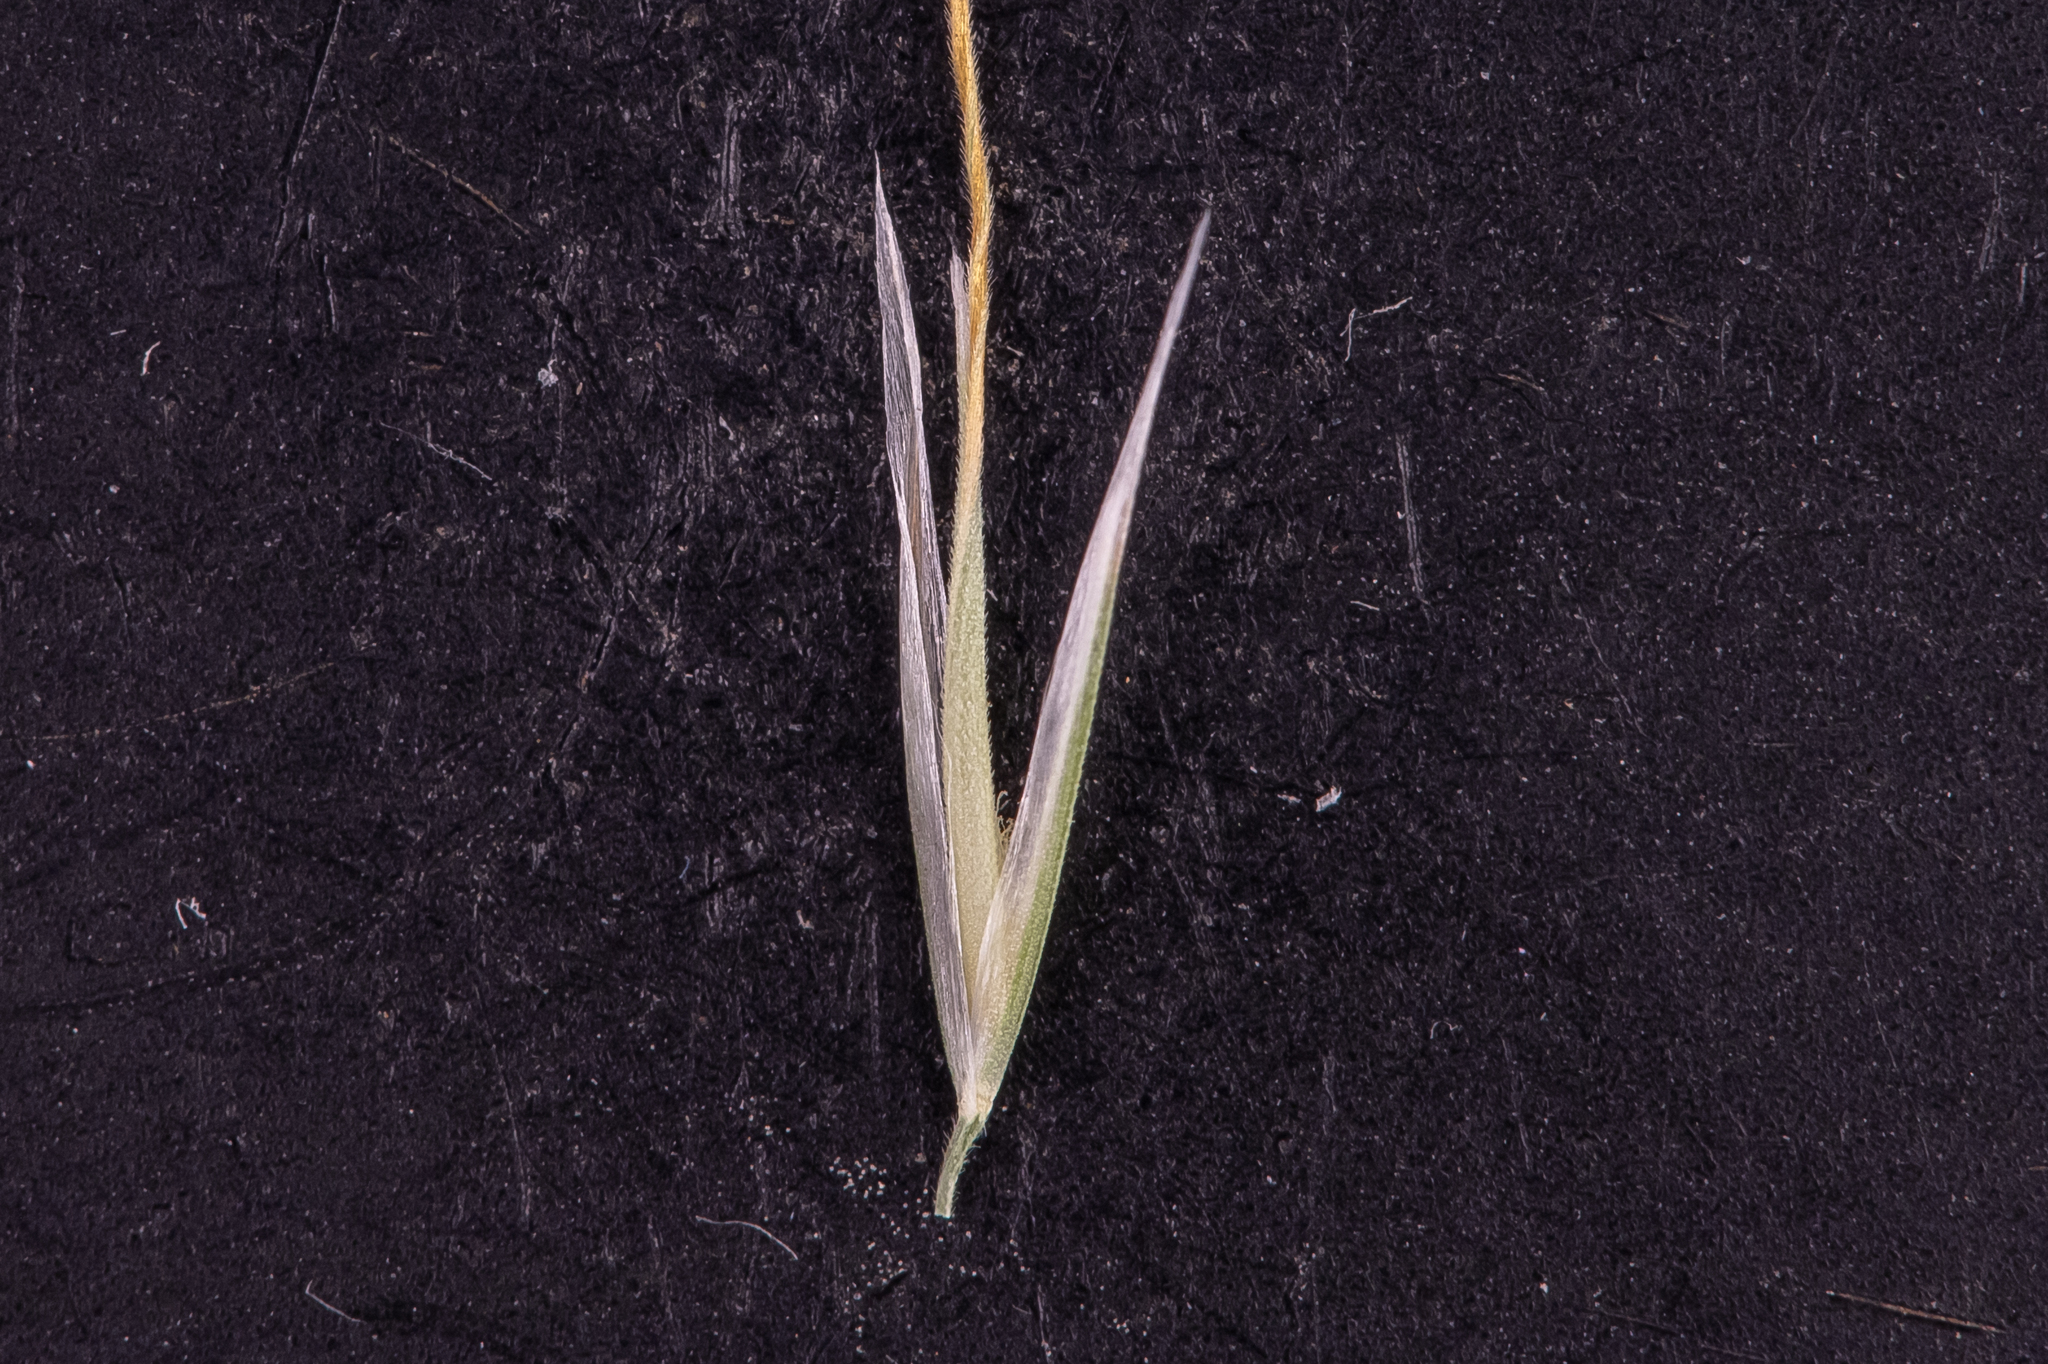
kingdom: Plantae
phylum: Tracheophyta
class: Liliopsida
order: Poales
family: Poaceae
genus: Dichelachne
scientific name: Dichelachne crinita
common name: Clovenfoot plumegrass
